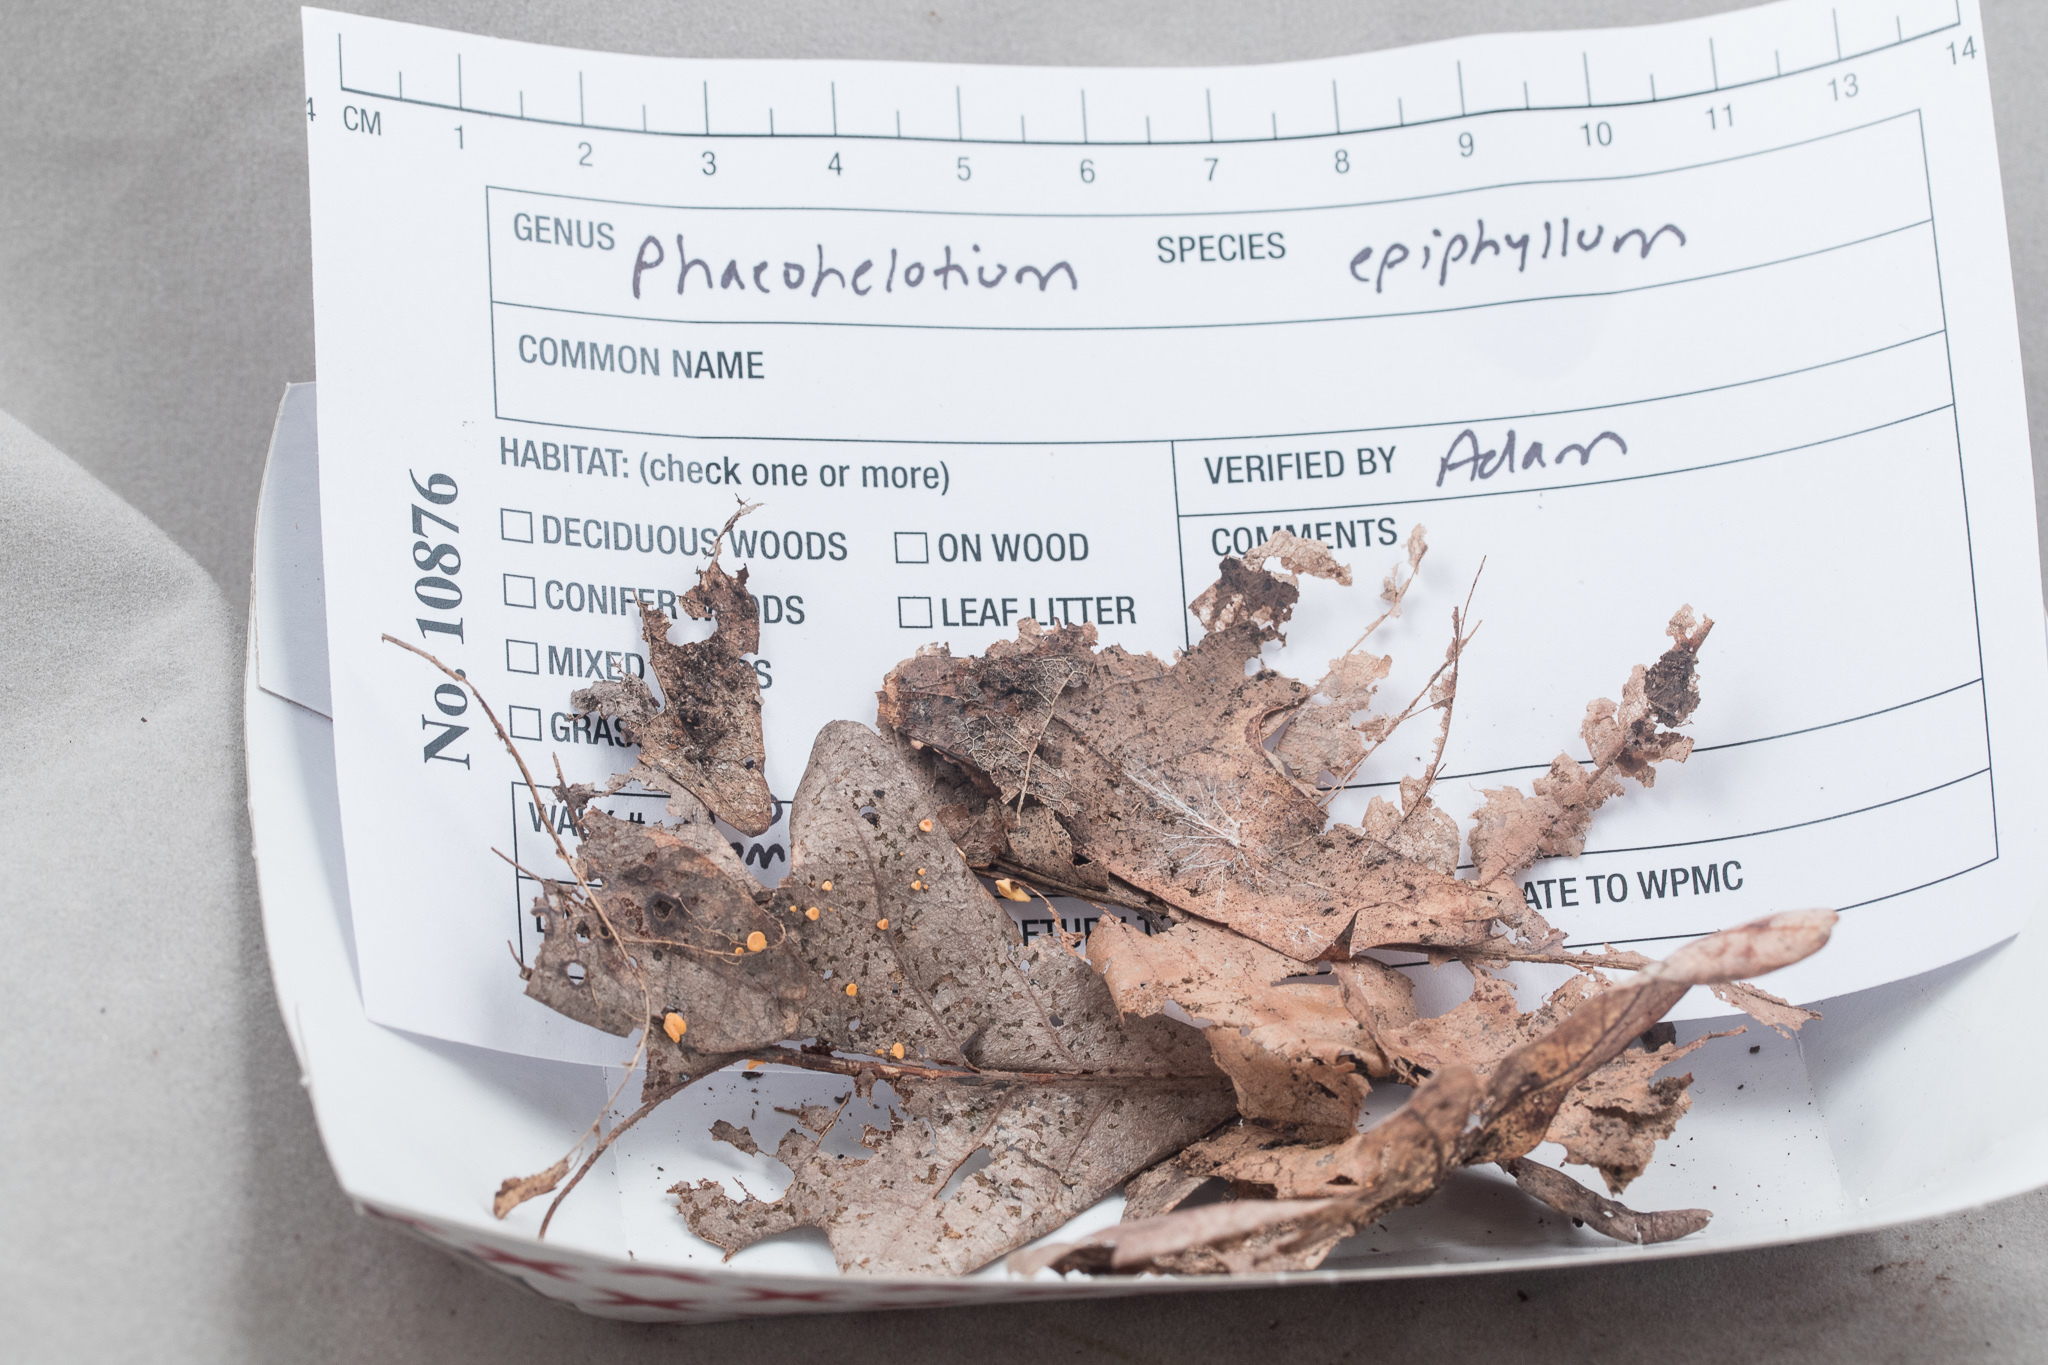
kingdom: Fungi
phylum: Ascomycota
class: Leotiomycetes
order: Helotiales
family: Helotiaceae
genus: Hymenoscyphus
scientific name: Hymenoscyphus epiphyllus
